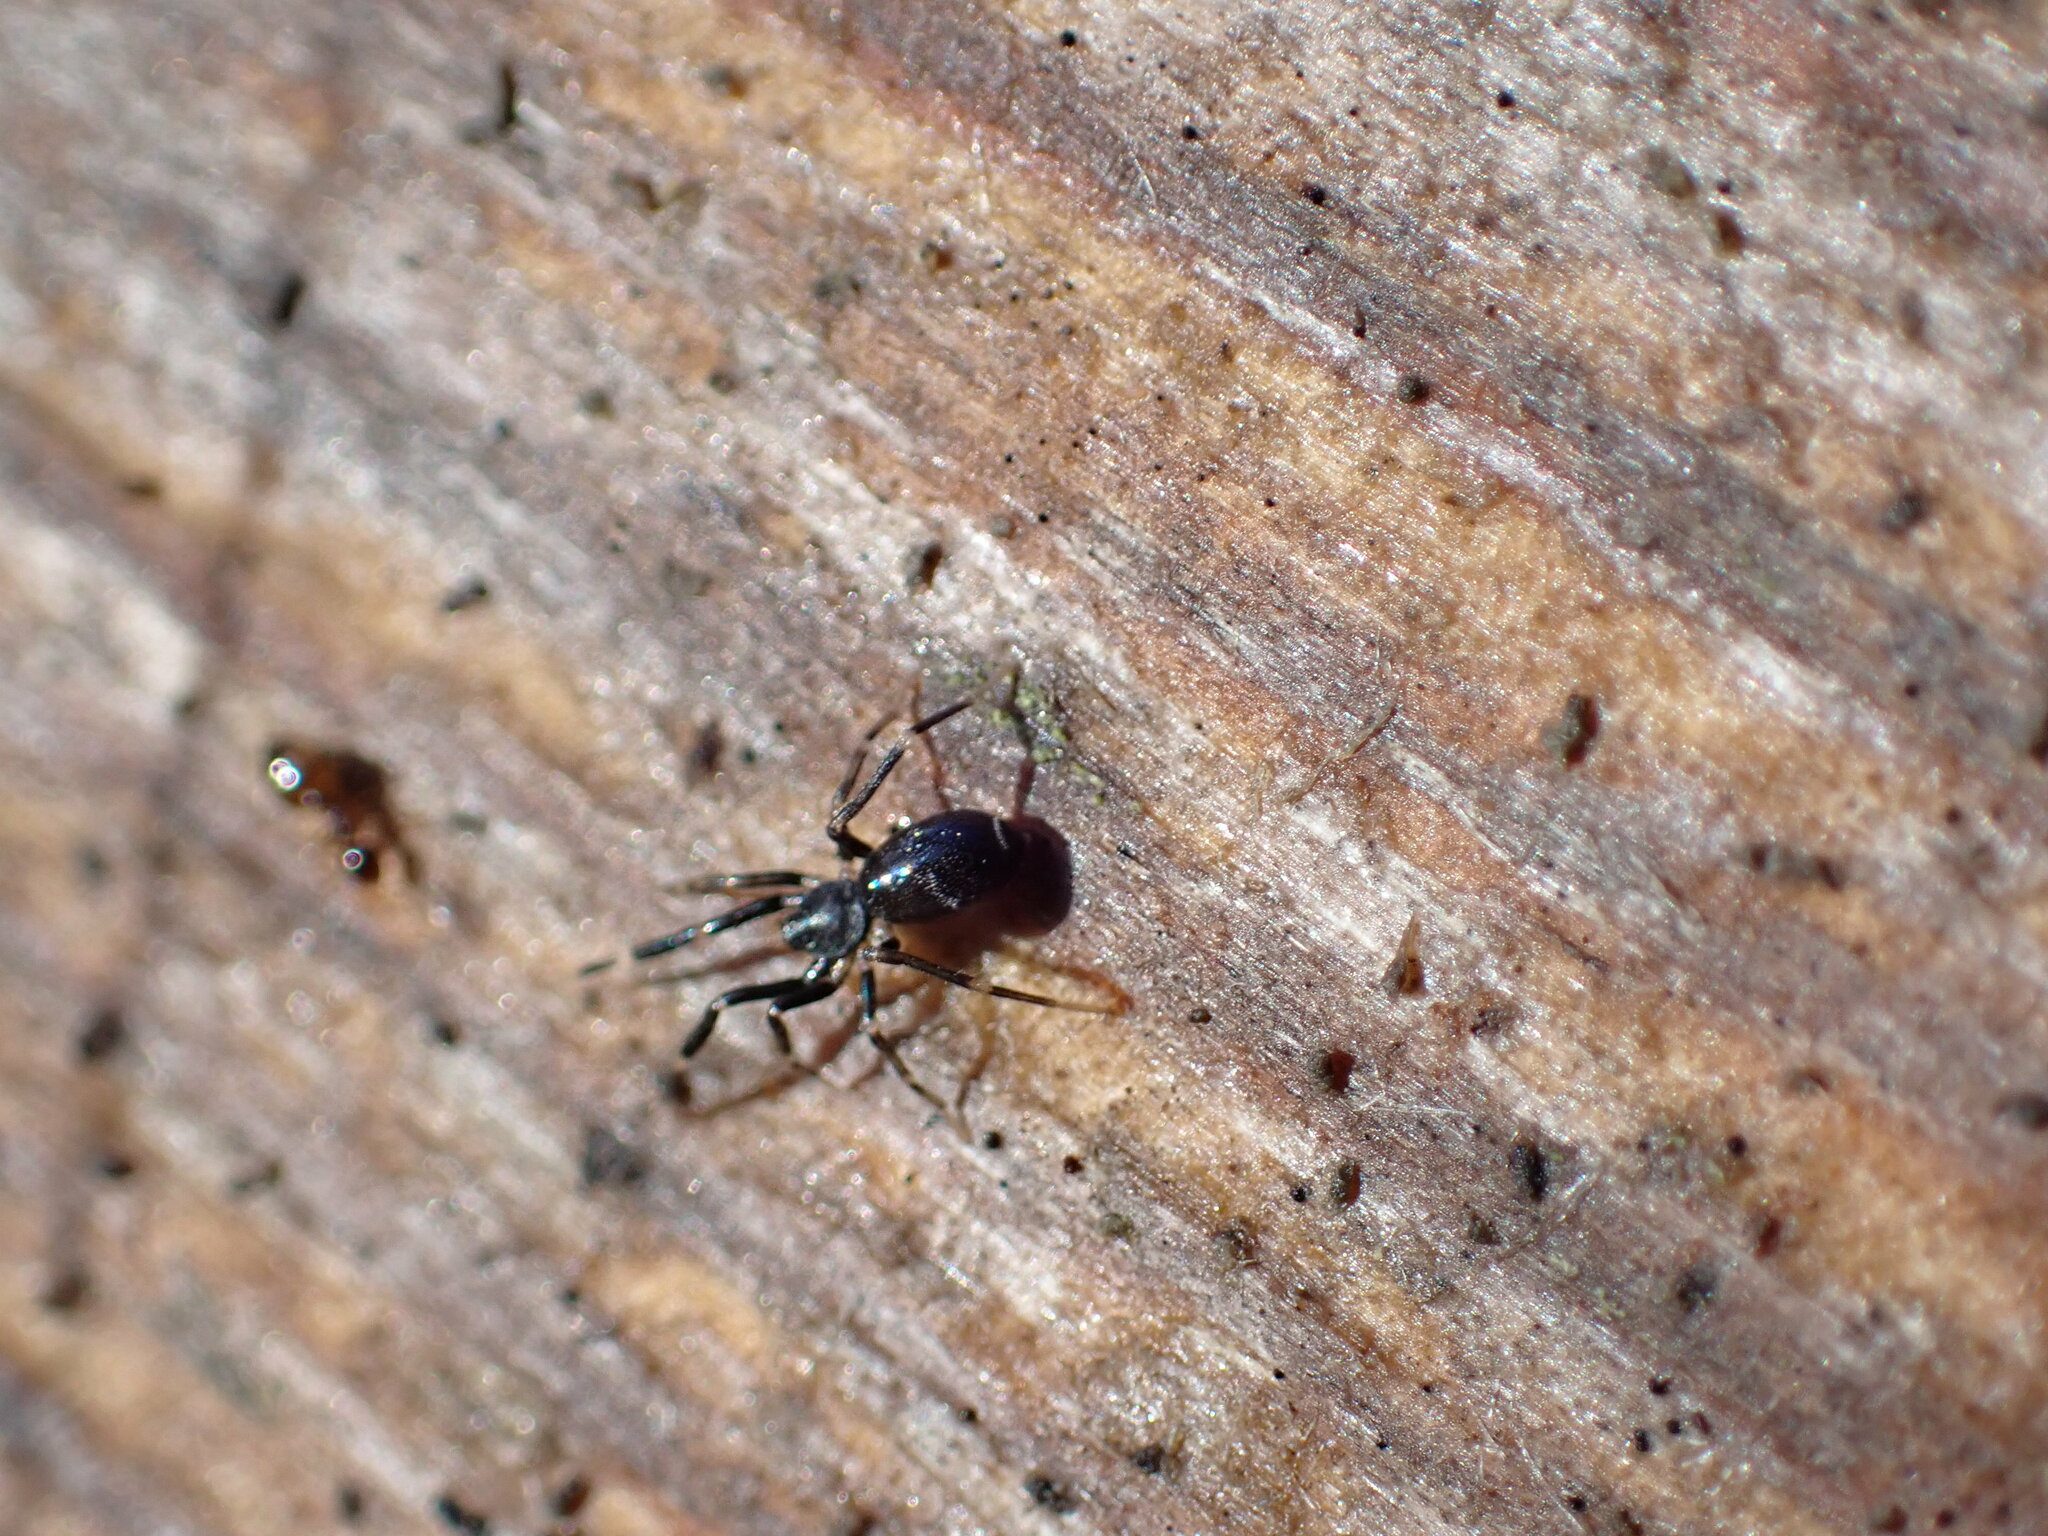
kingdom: Animalia
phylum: Arthropoda
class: Arachnida
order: Araneae
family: Phrurolithidae
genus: Liophrurillus
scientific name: Liophrurillus flavitarsis
